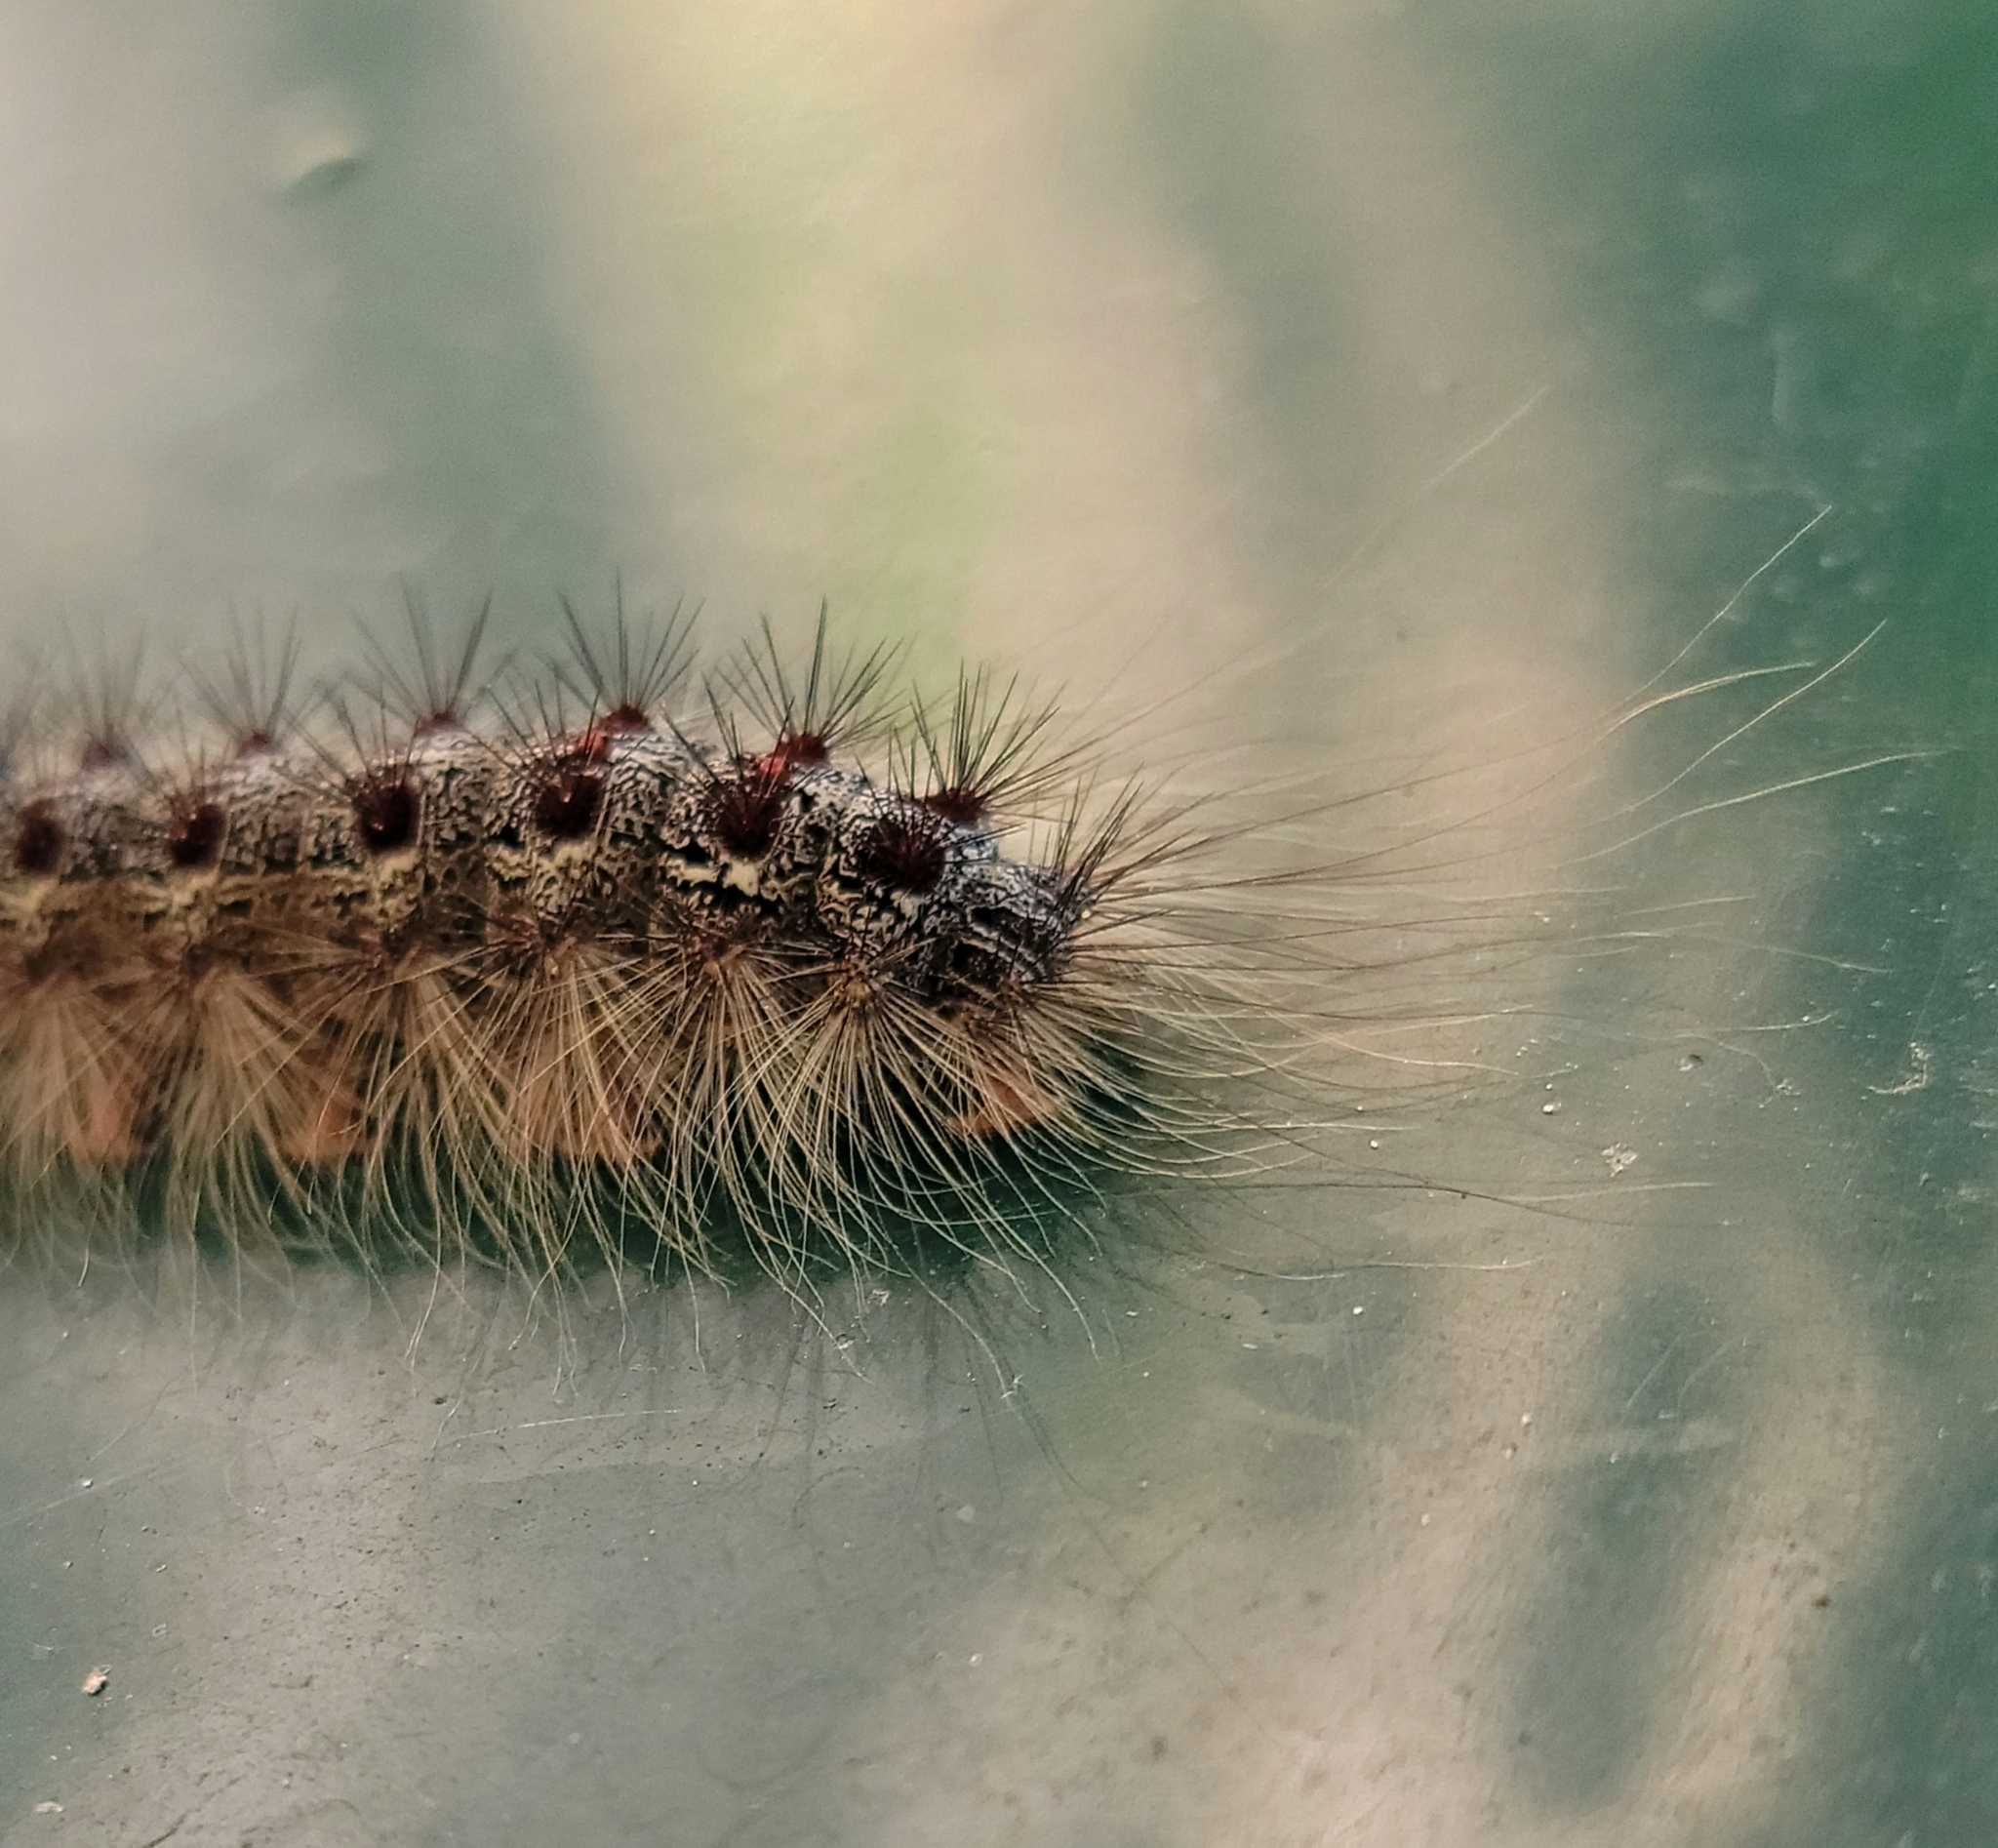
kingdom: Animalia
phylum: Arthropoda
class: Insecta
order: Lepidoptera
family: Erebidae
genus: Lymantria
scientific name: Lymantria dispar
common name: Gypsy moth
